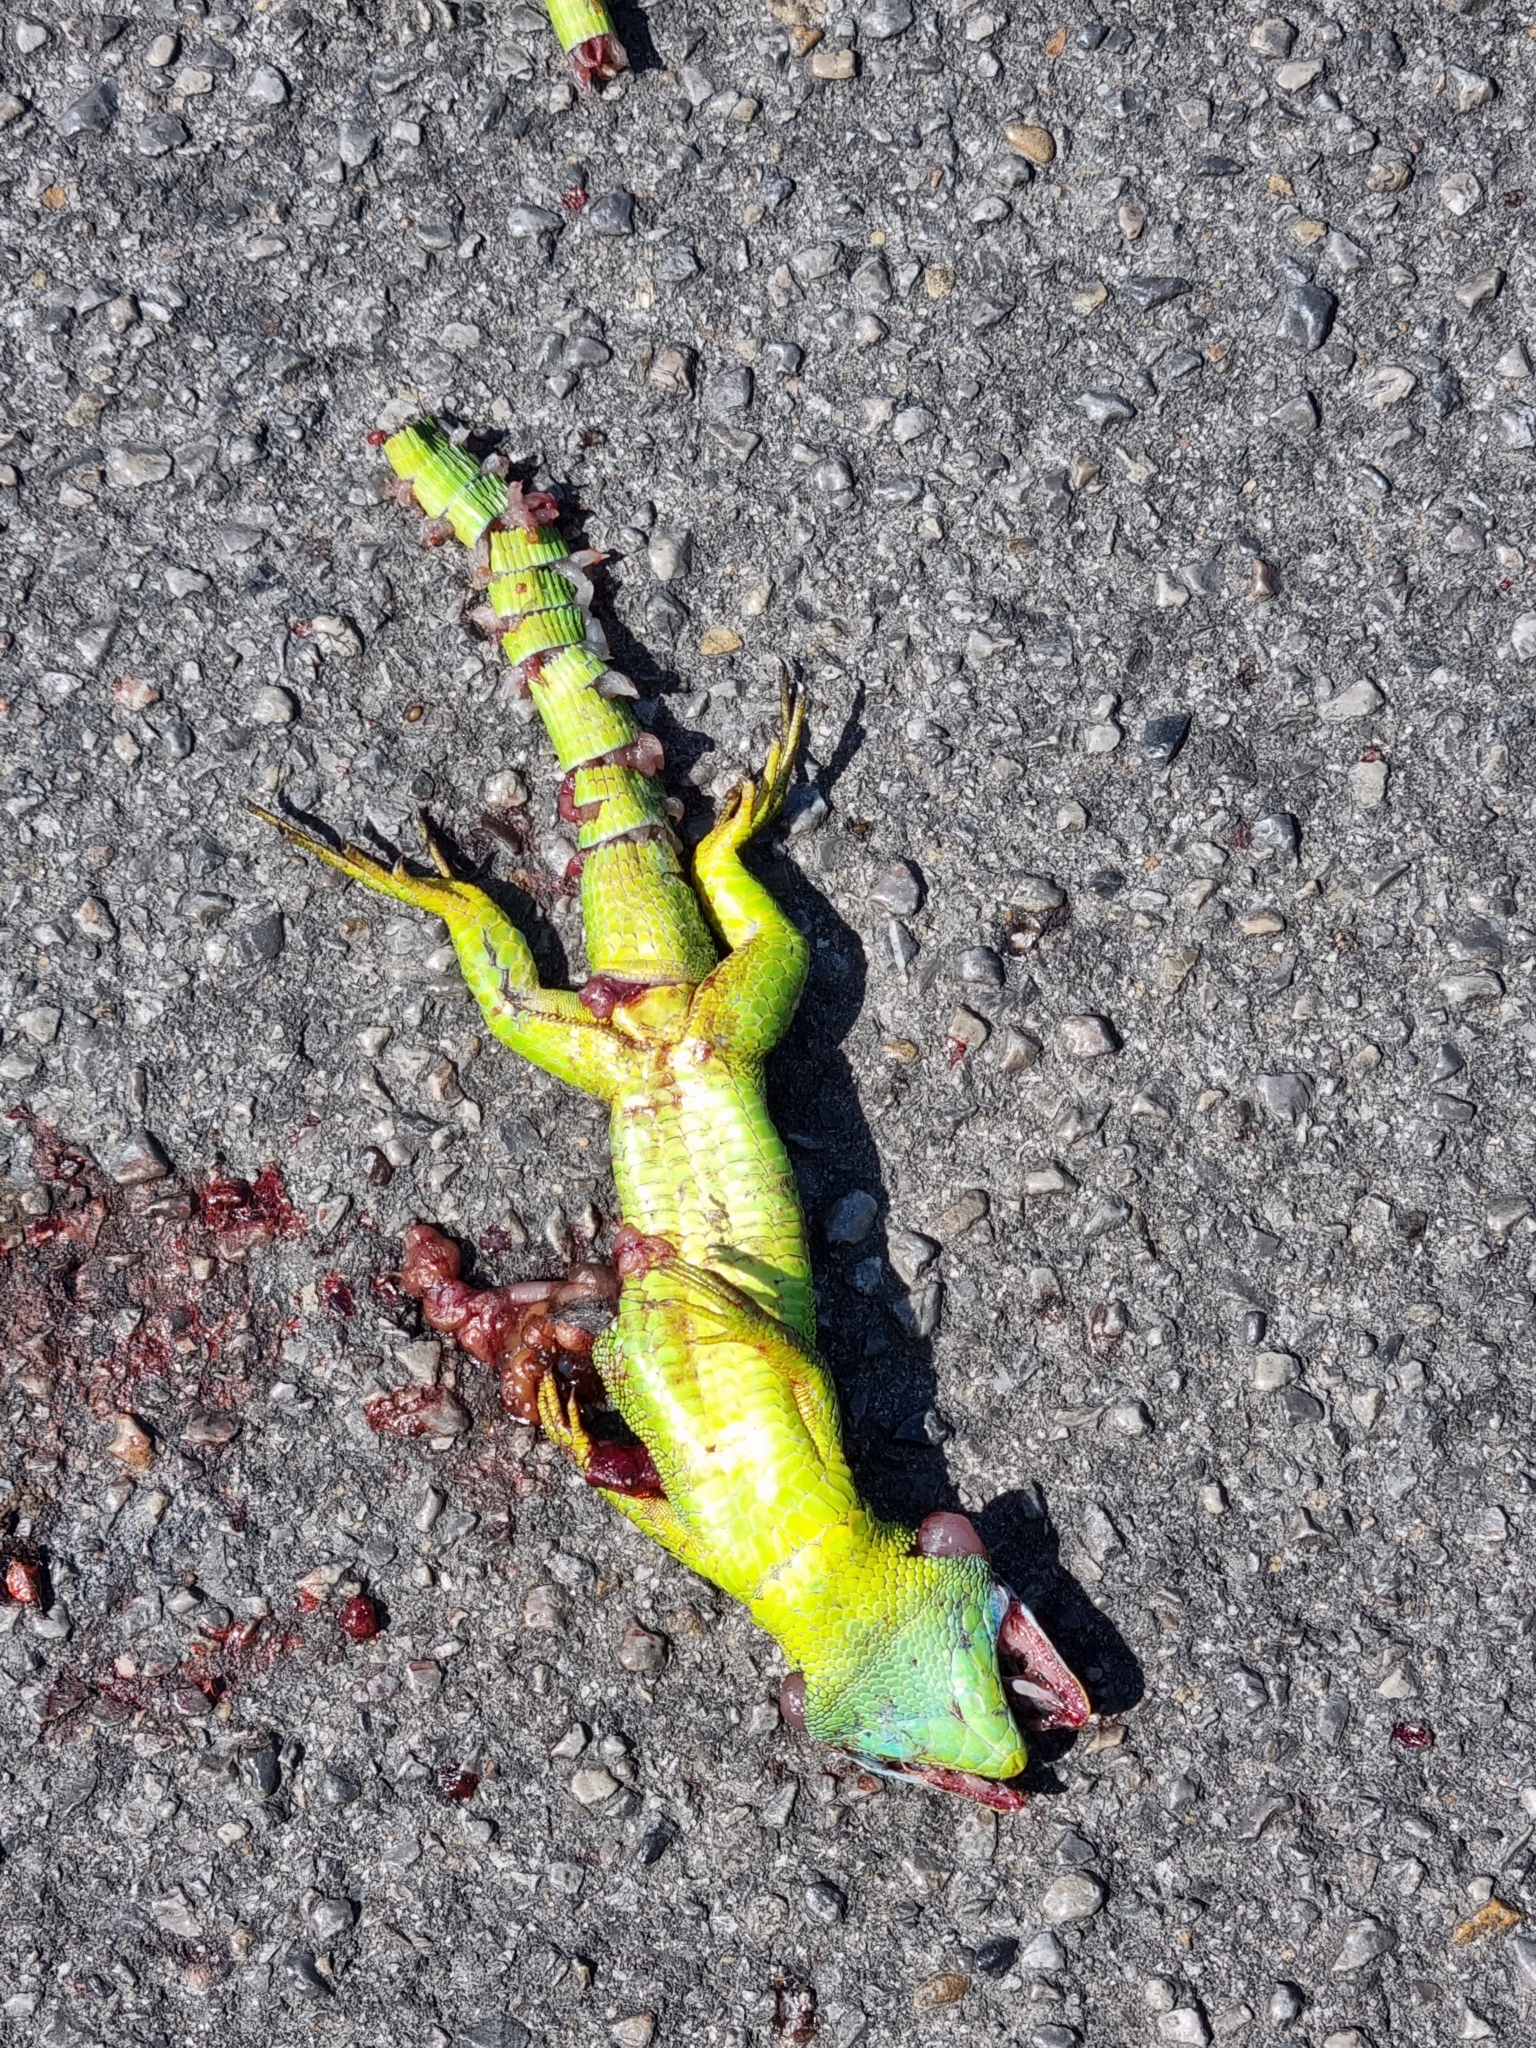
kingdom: Animalia
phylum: Chordata
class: Squamata
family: Lacertidae
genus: Lacerta
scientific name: Lacerta bilineata
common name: Western green lizard
